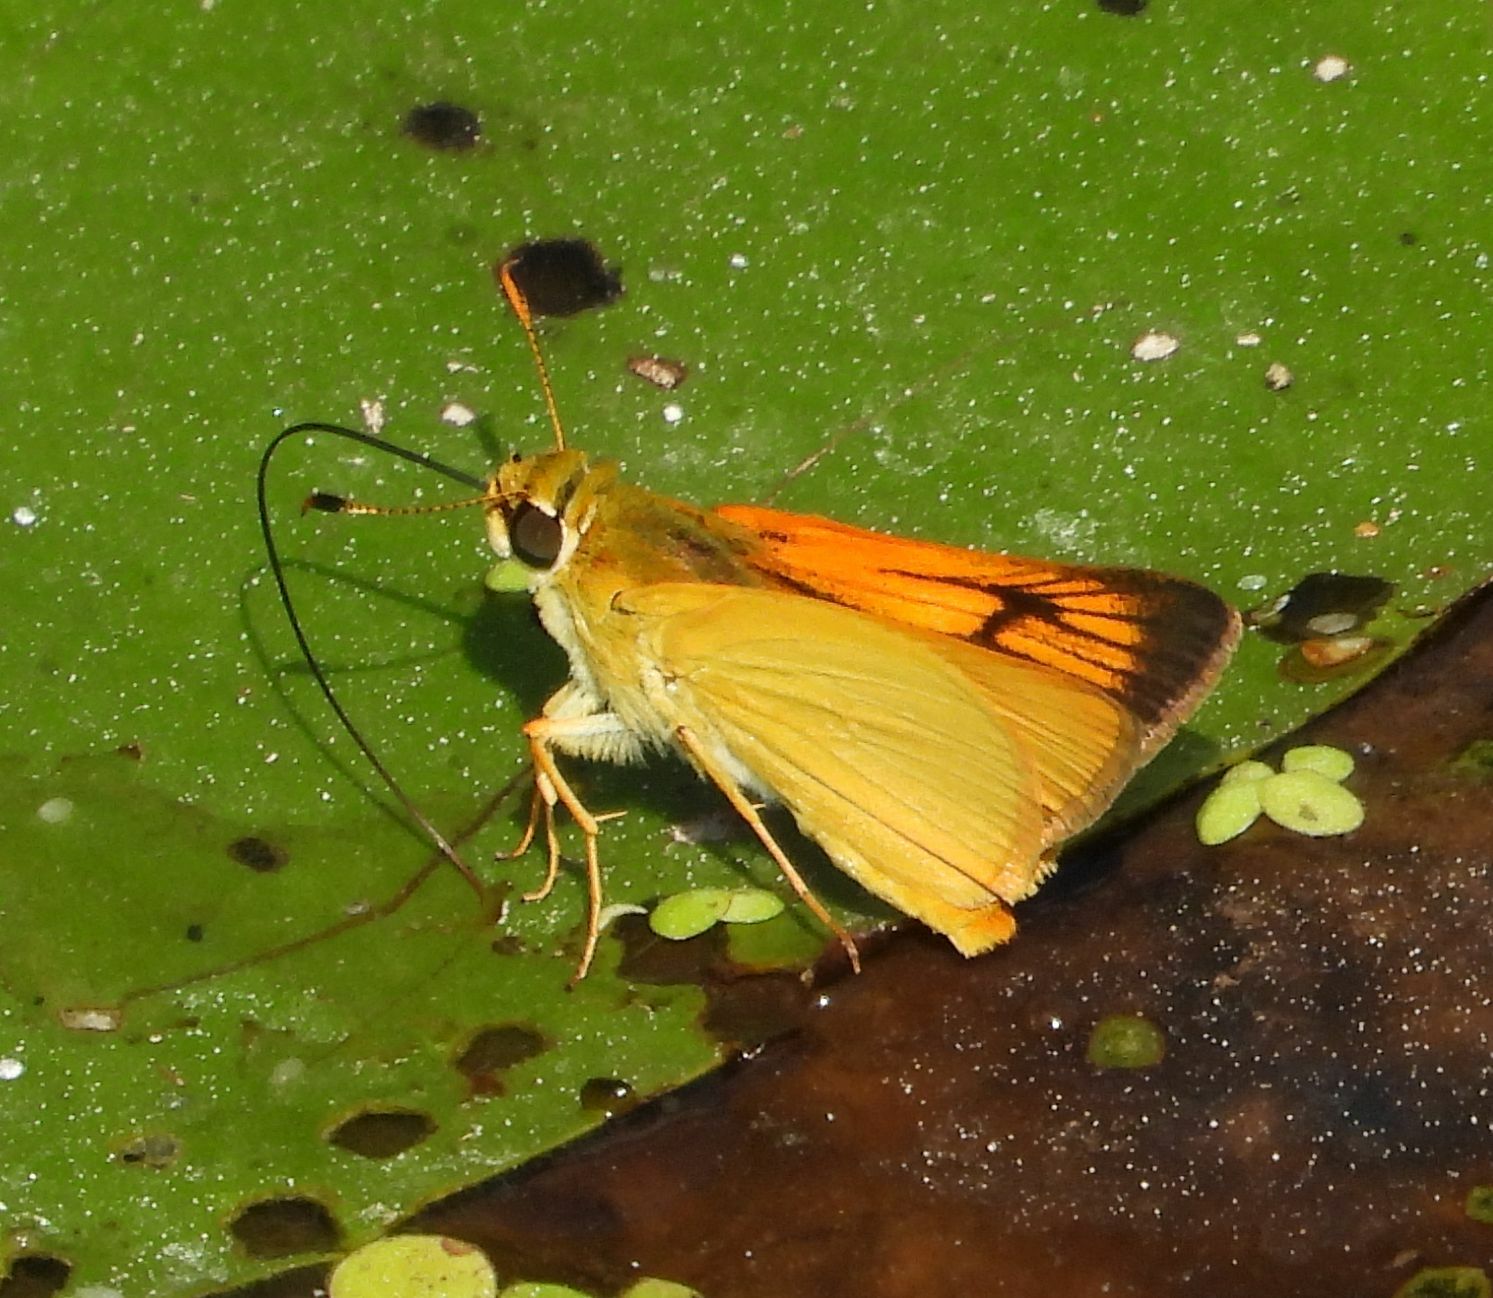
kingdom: Animalia
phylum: Arthropoda
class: Insecta
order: Lepidoptera
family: Hesperiidae
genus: Atrytone
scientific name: Atrytone delaware
